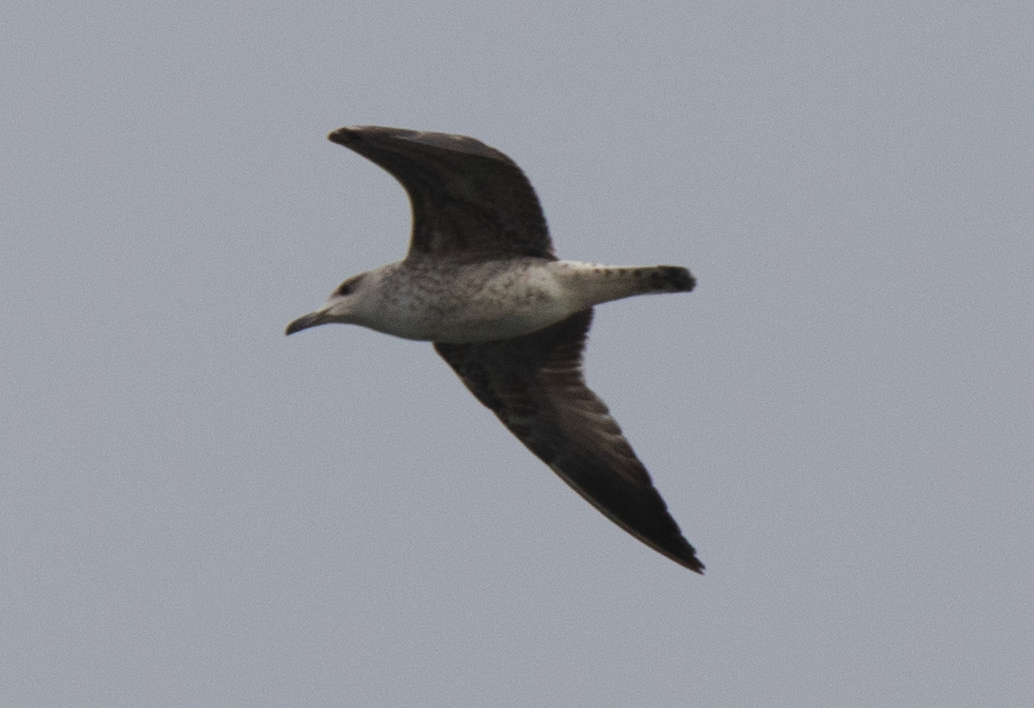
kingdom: Animalia
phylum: Chordata
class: Aves
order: Charadriiformes
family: Laridae
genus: Larus
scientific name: Larus michahellis
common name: Yellow-legged gull
